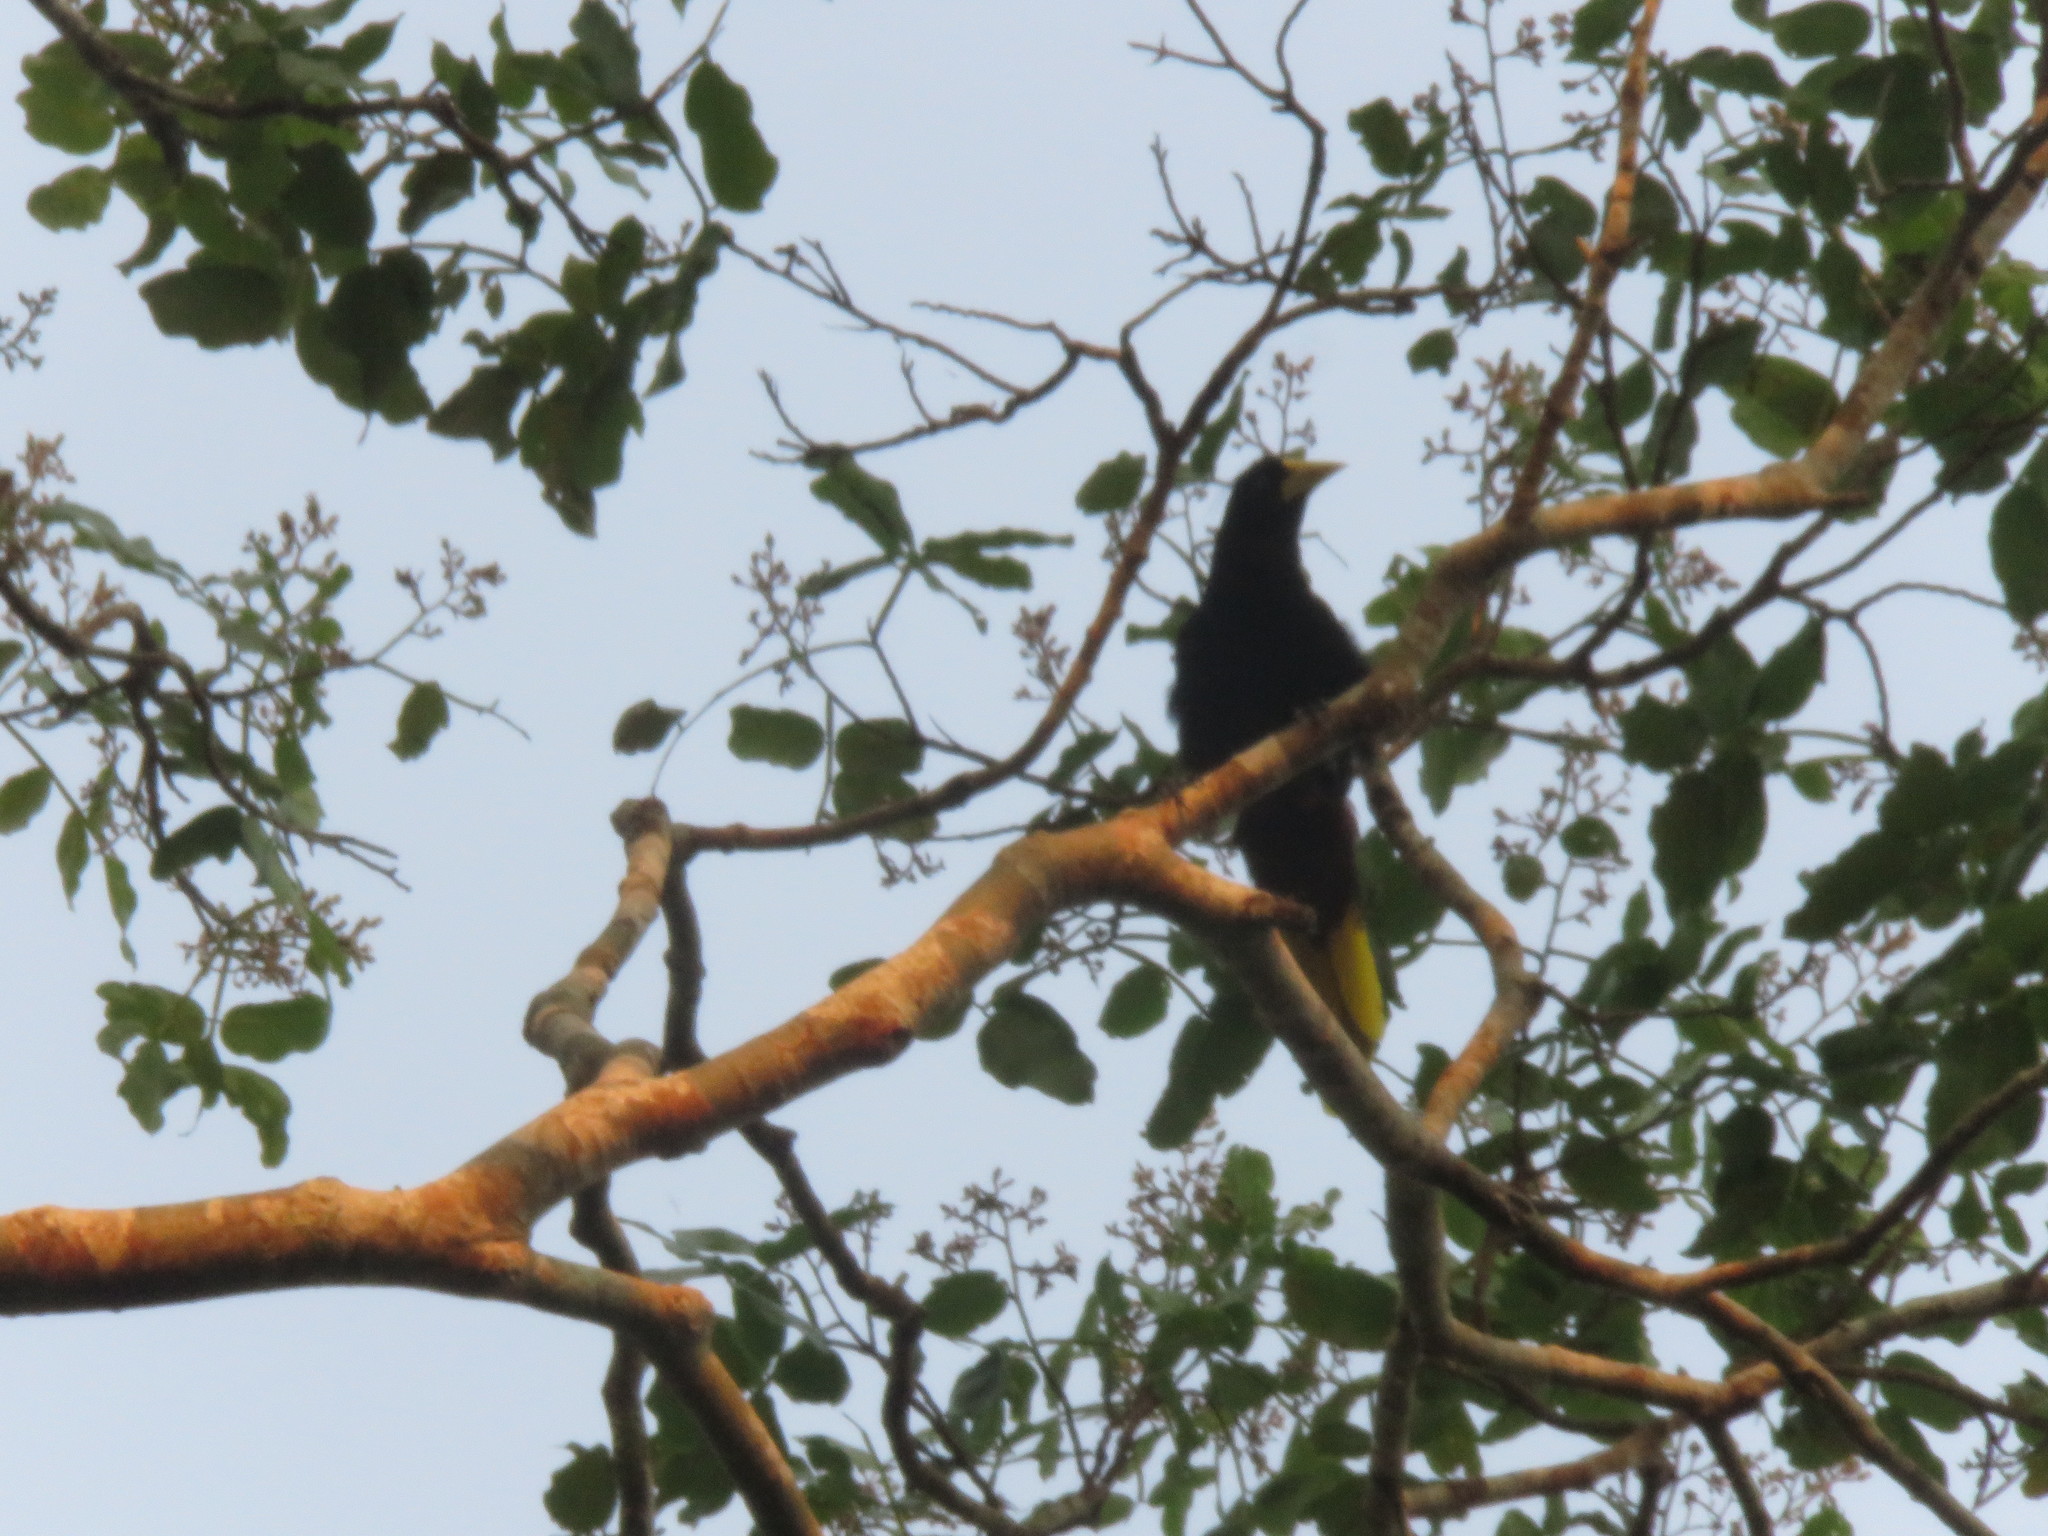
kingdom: Animalia
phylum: Chordata
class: Aves
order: Passeriformes
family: Icteridae
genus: Psarocolius
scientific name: Psarocolius decumanus
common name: Crested oropendola
